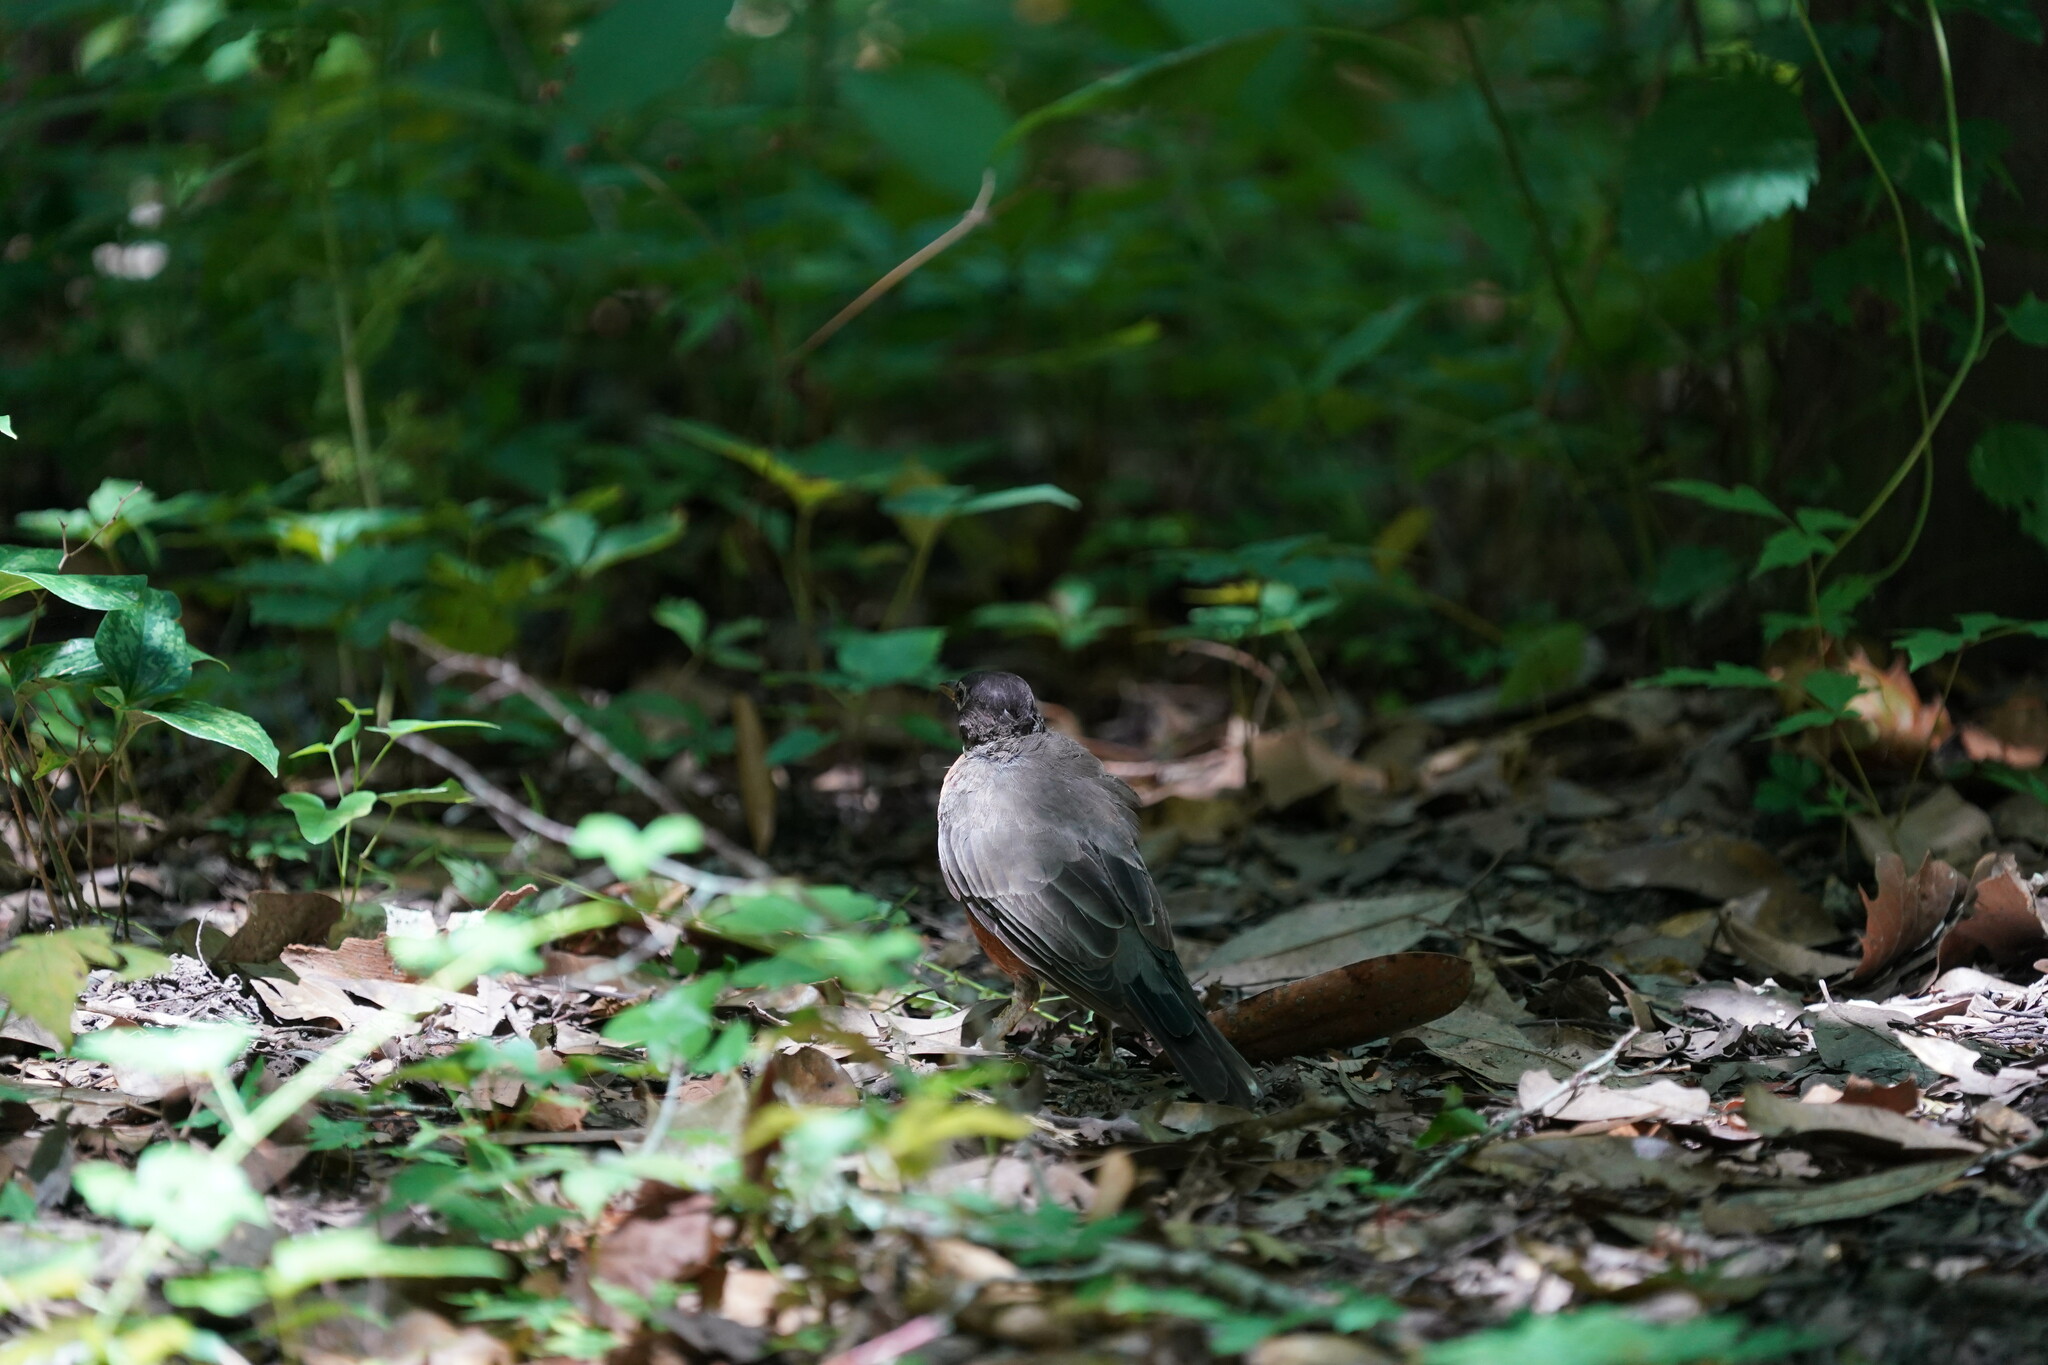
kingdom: Animalia
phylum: Chordata
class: Aves
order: Passeriformes
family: Turdidae
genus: Turdus
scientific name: Turdus migratorius
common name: American robin
